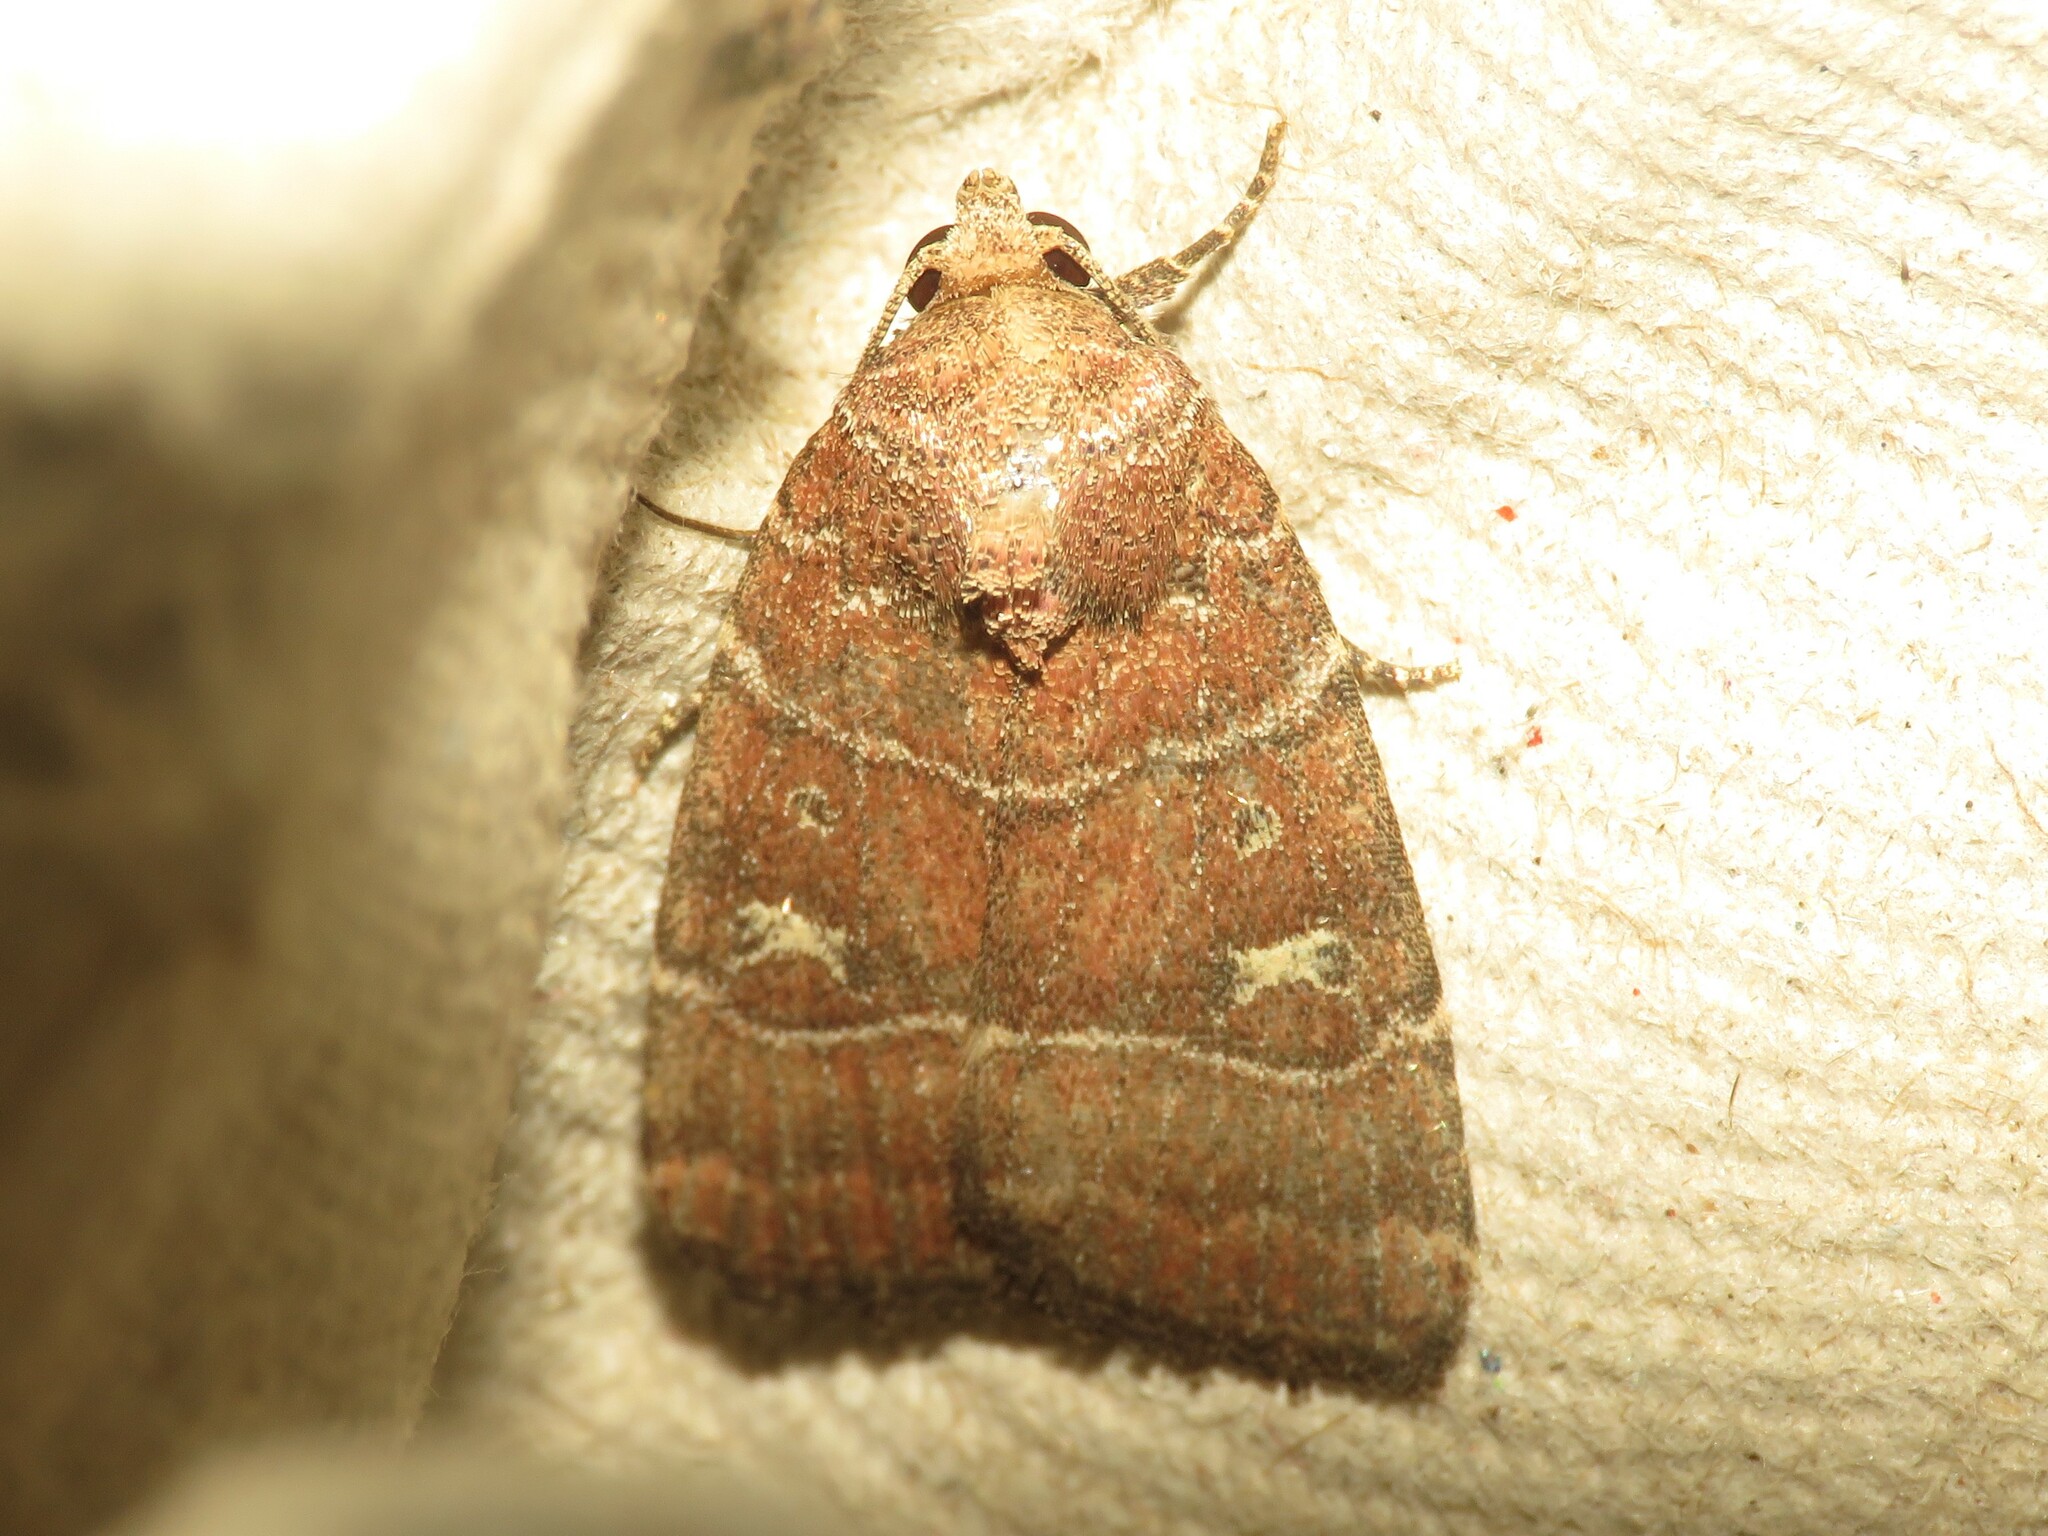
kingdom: Animalia
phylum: Arthropoda
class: Insecta
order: Lepidoptera
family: Noctuidae
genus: Elaphria
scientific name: Elaphria grata
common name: Grateful midget moth
